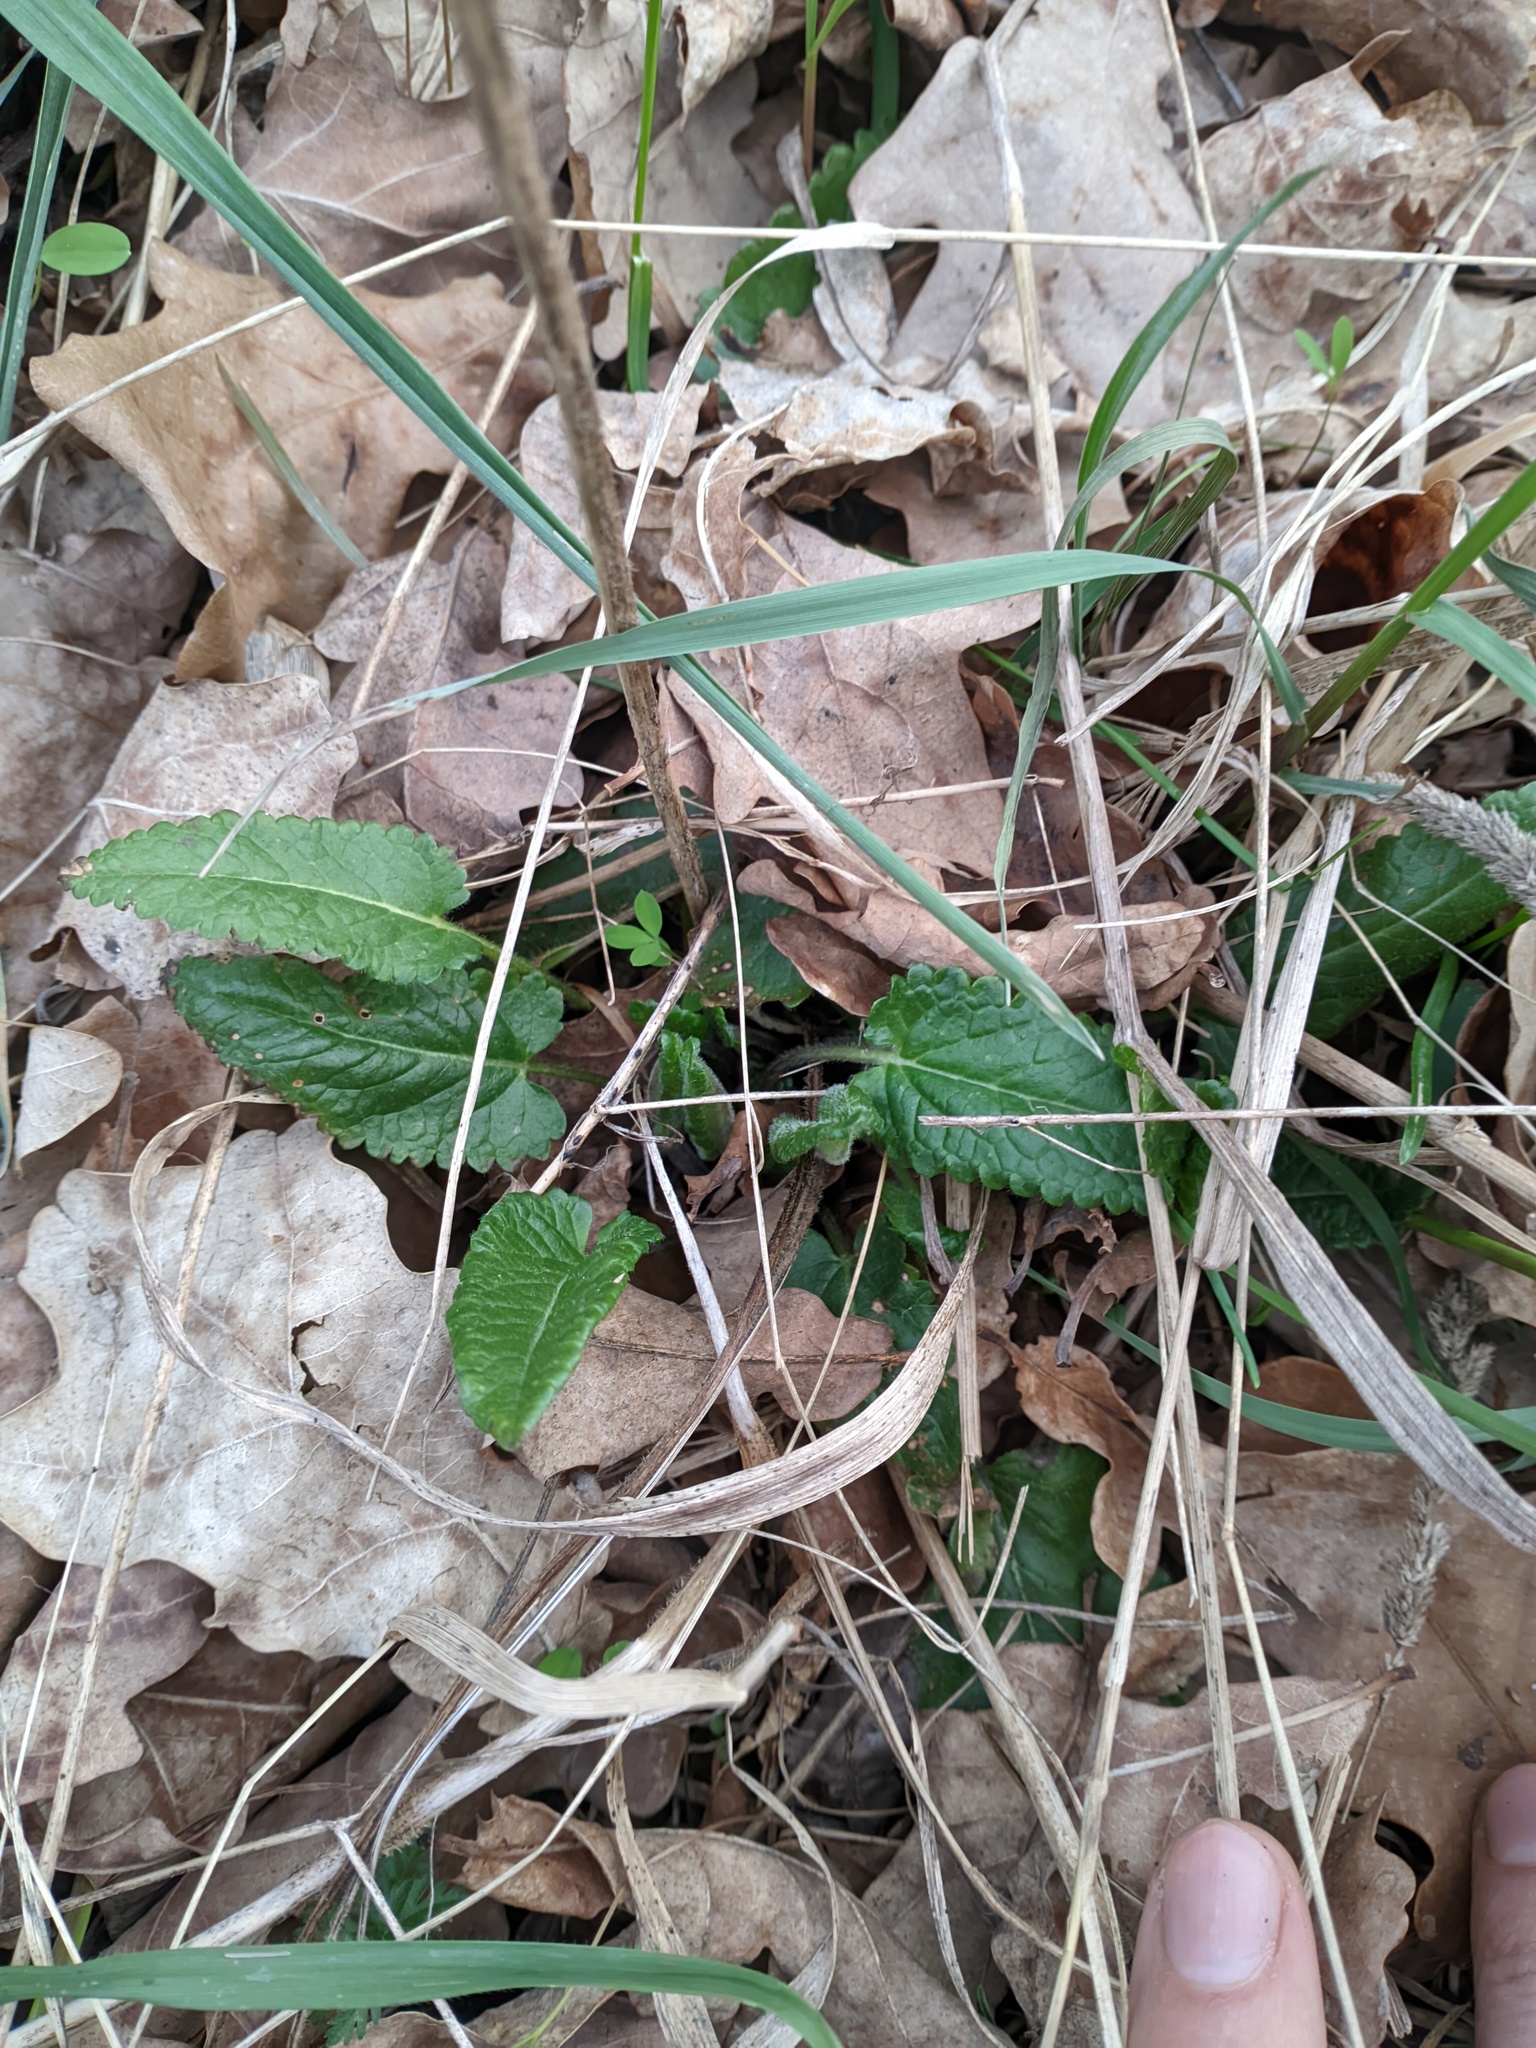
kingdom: Plantae
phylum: Tracheophyta
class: Magnoliopsida
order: Lamiales
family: Lamiaceae
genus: Betonica
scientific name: Betonica officinalis
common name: Bishop's-wort
